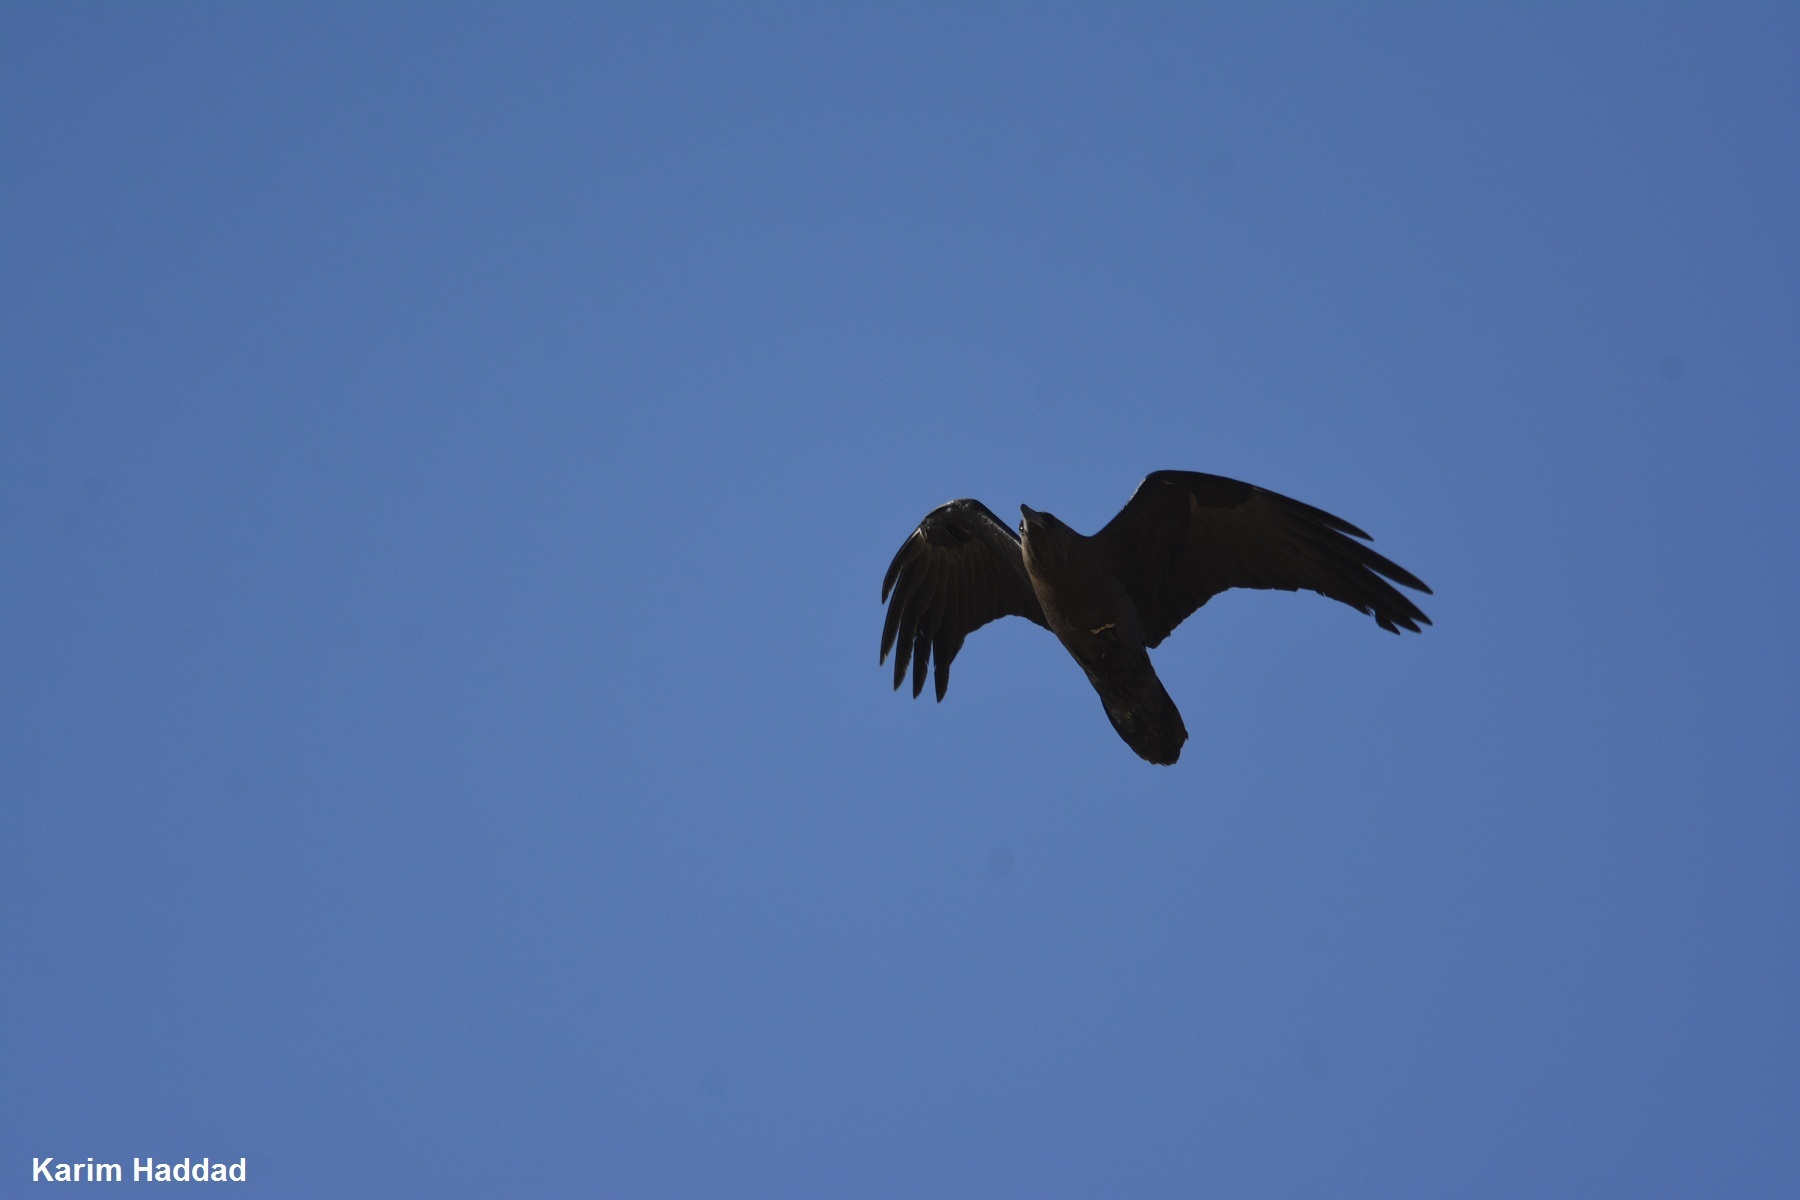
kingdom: Animalia
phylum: Chordata
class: Aves
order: Passeriformes
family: Corvidae
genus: Corvus
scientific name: Corvus ruficollis
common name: Brown-necked raven
